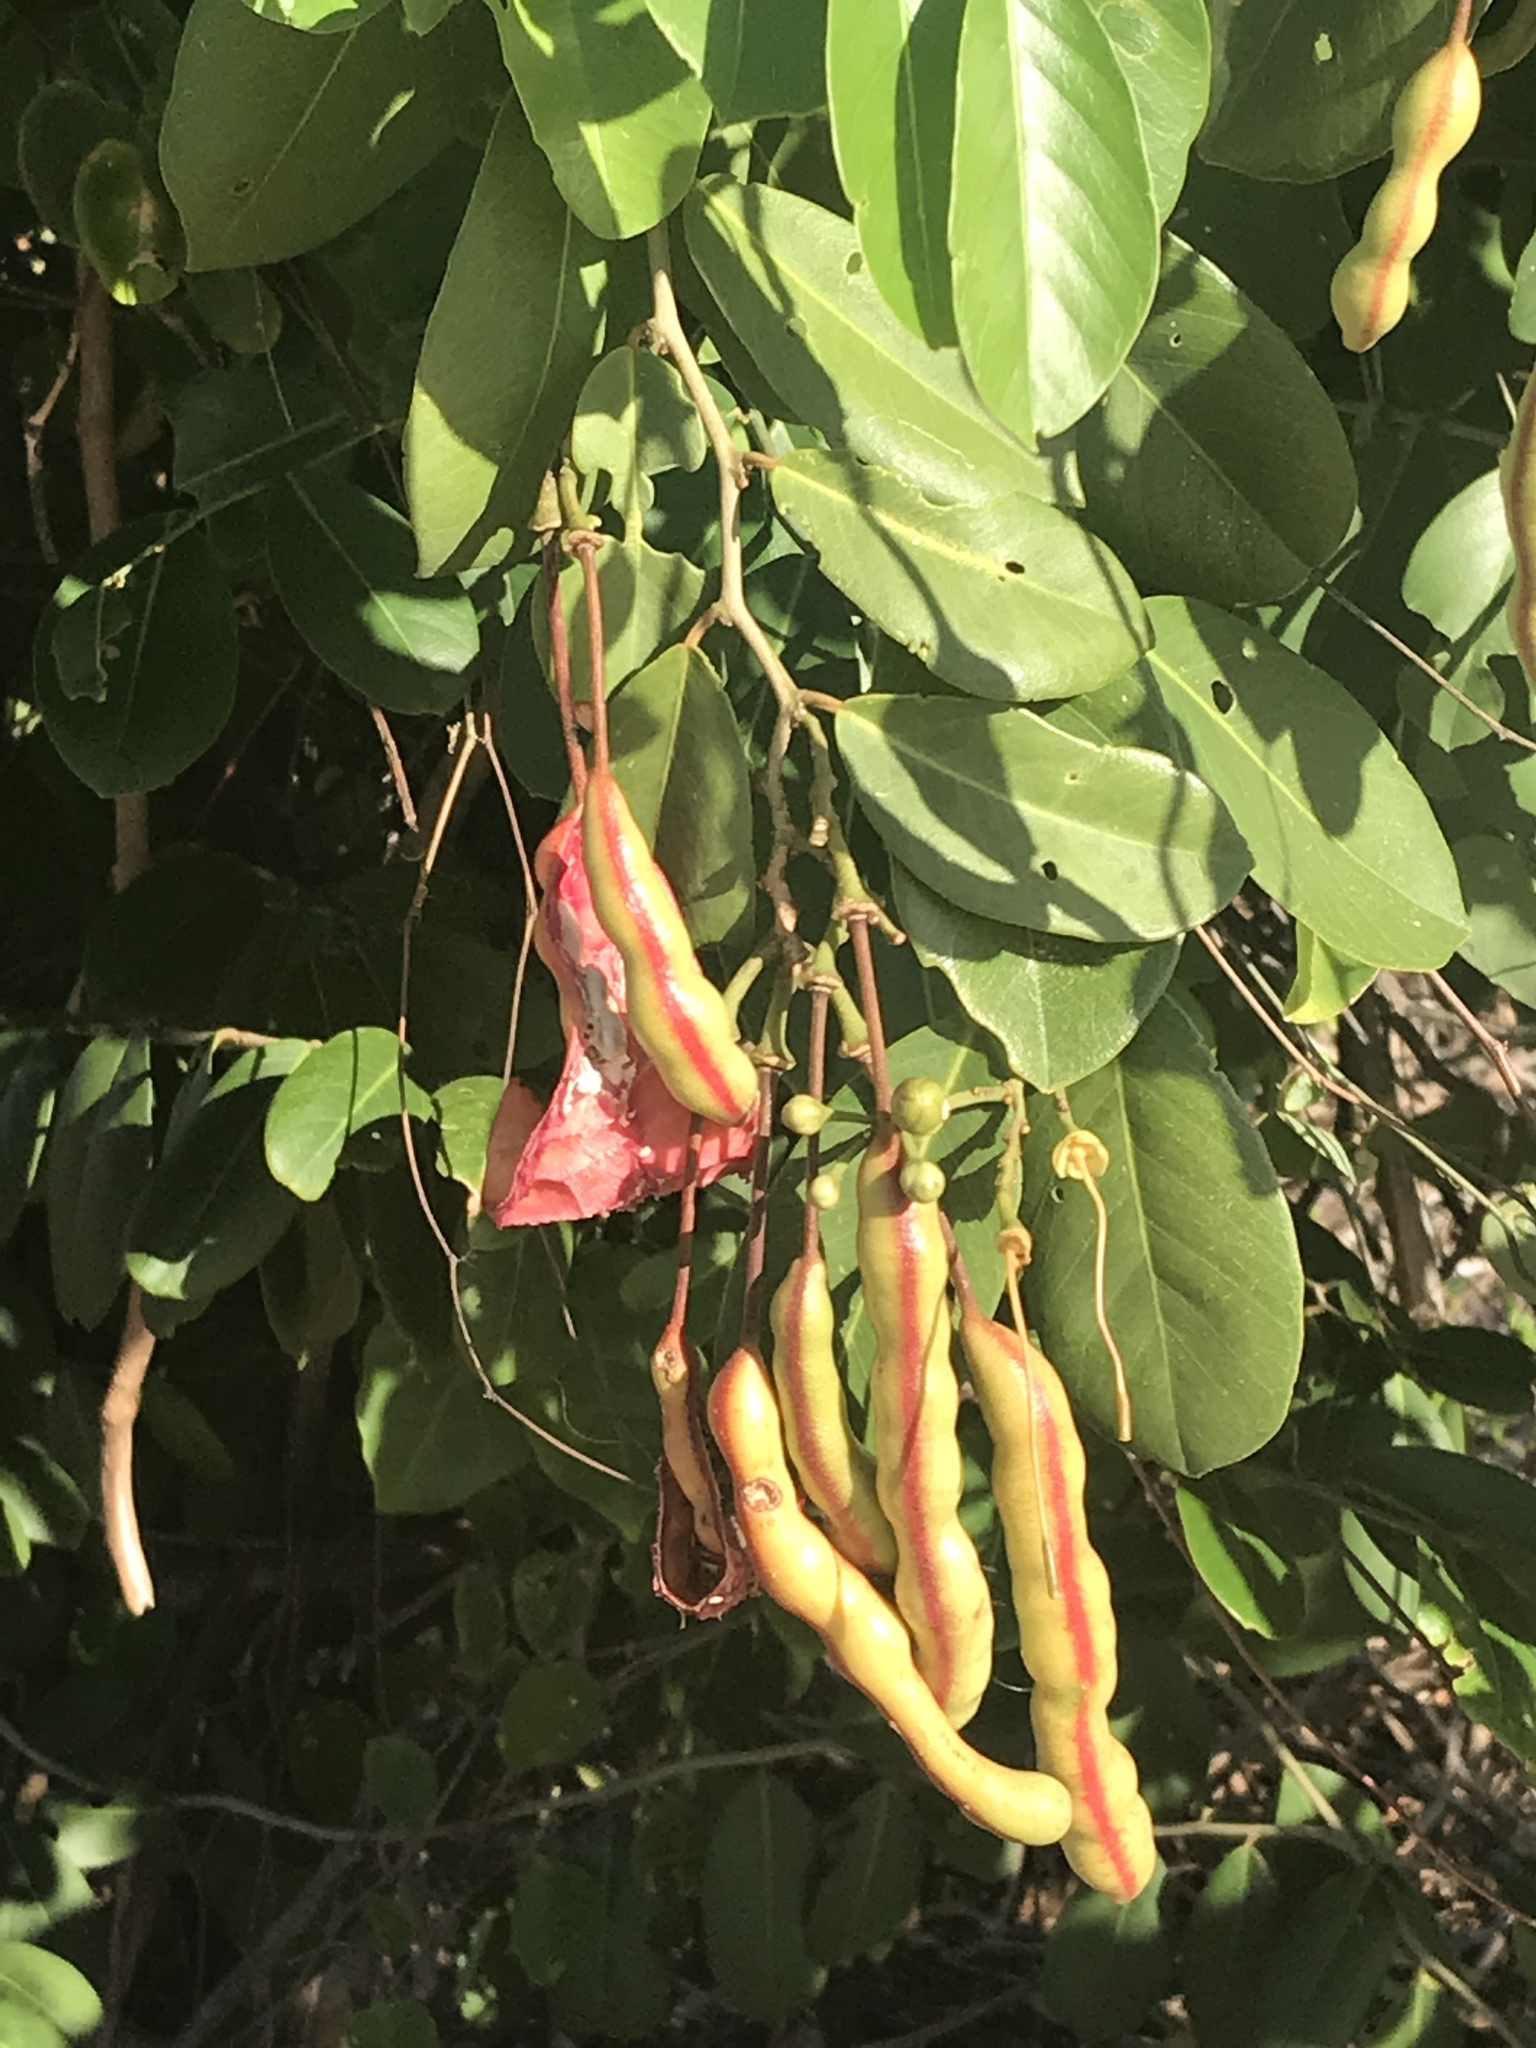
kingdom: Plantae
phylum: Tracheophyta
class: Magnoliopsida
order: Brassicales
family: Capparaceae
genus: Cynophalla
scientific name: Cynophalla flexuosa
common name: Capertree
